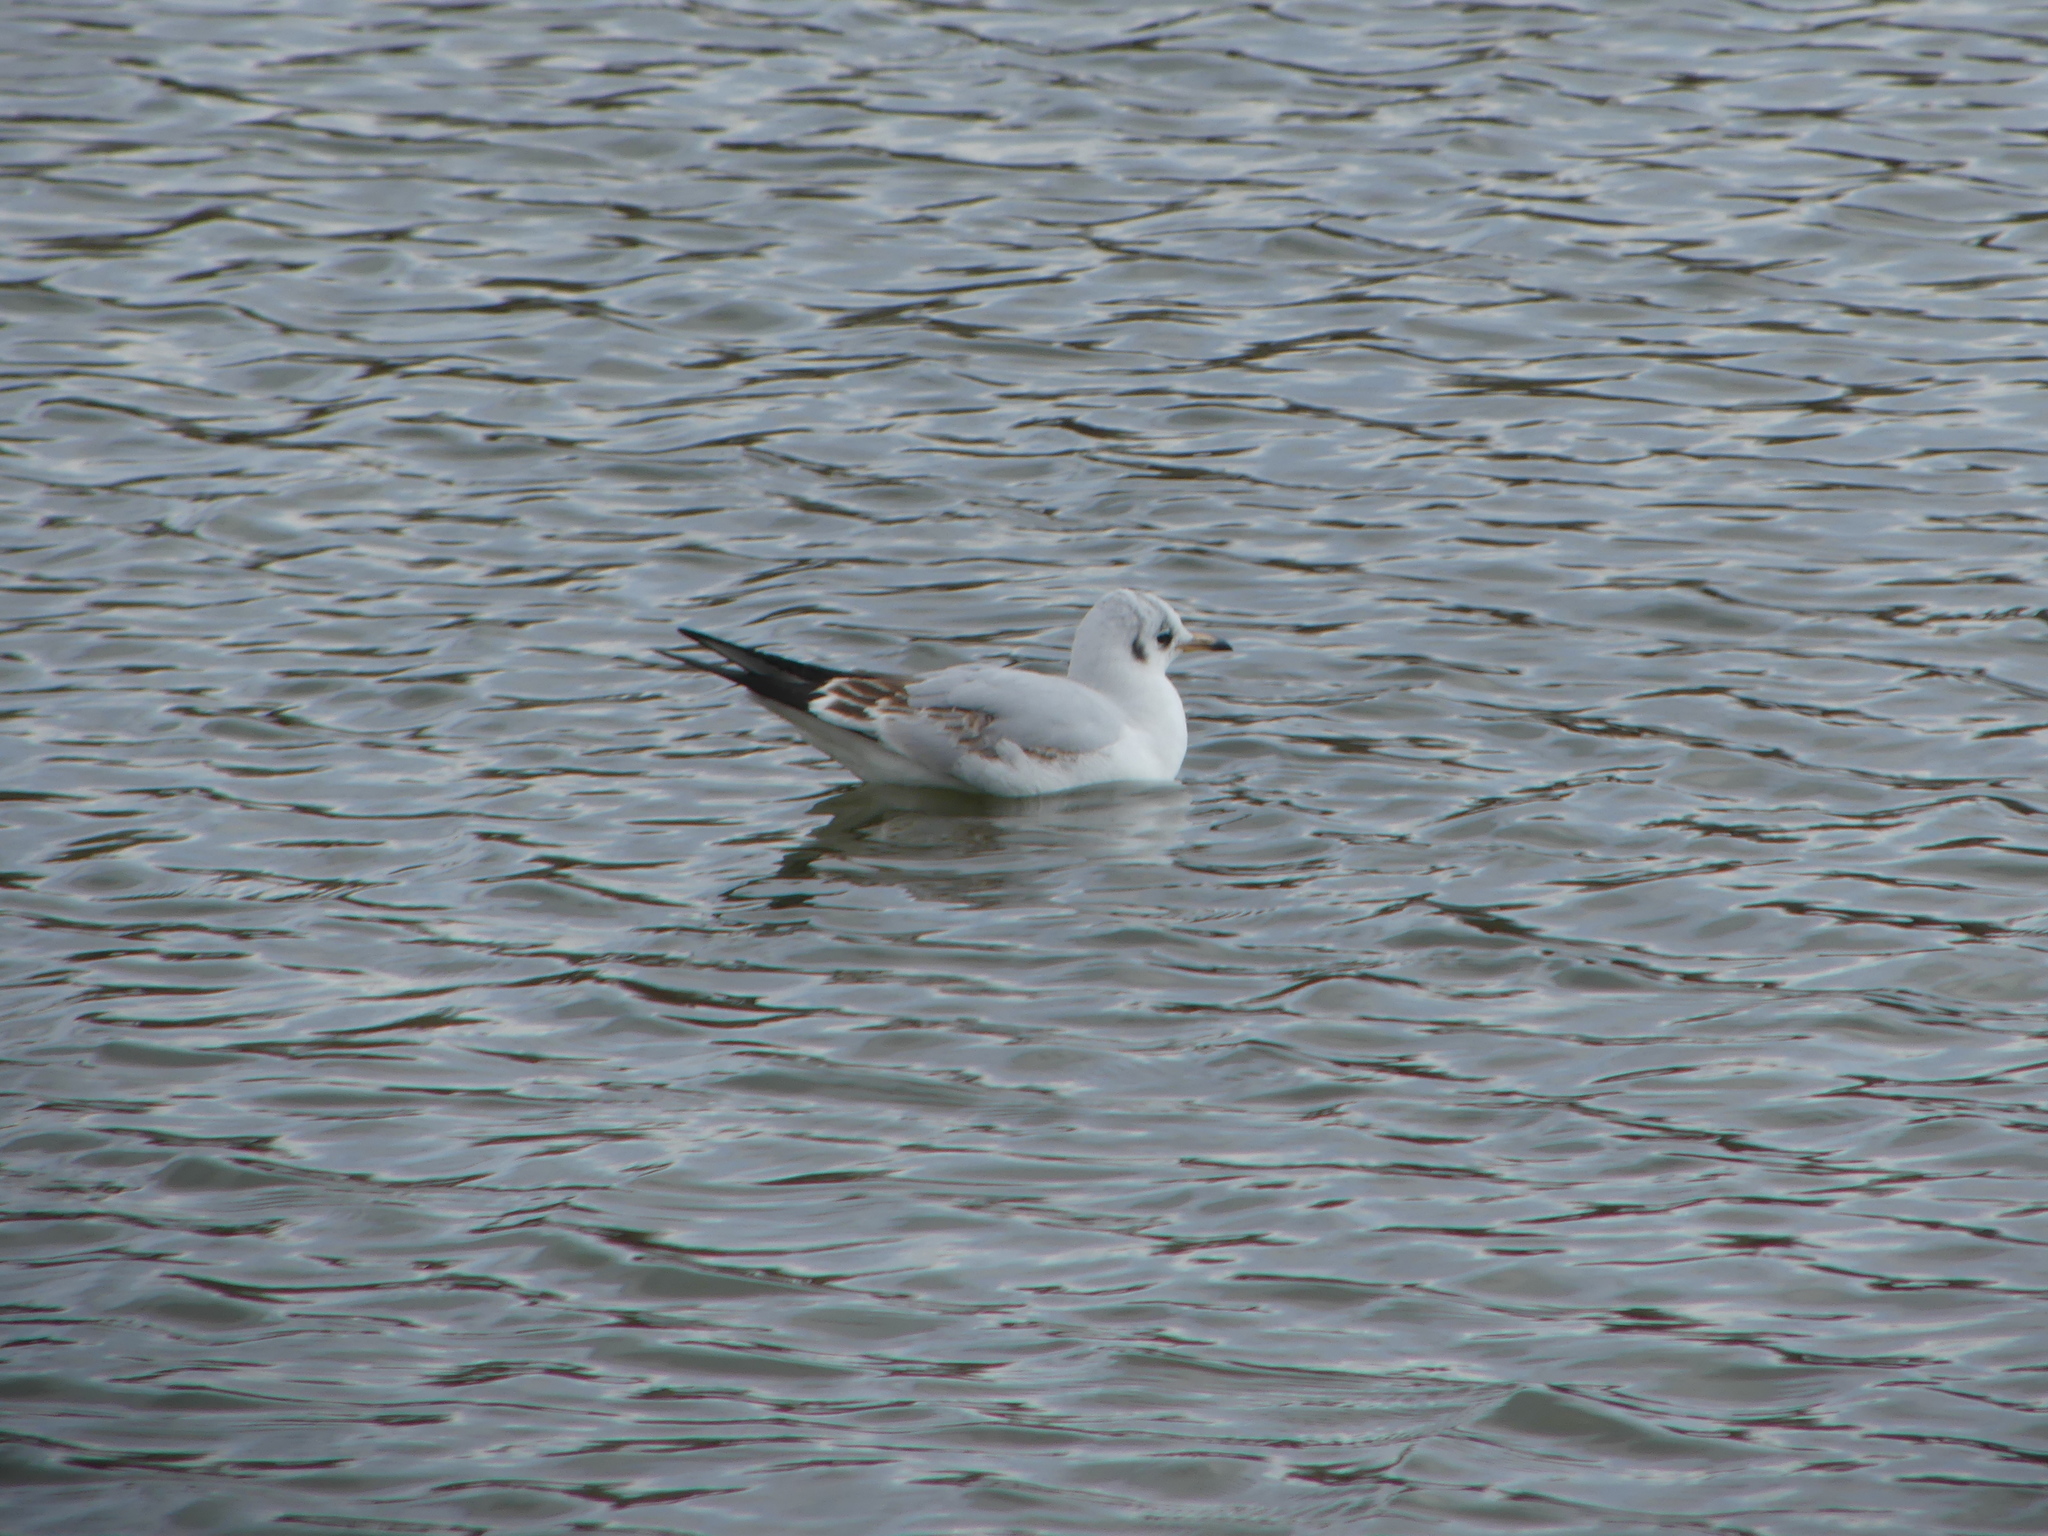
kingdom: Animalia
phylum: Chordata
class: Aves
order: Charadriiformes
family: Laridae
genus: Chroicocephalus
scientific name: Chroicocephalus ridibundus
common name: Black-headed gull
